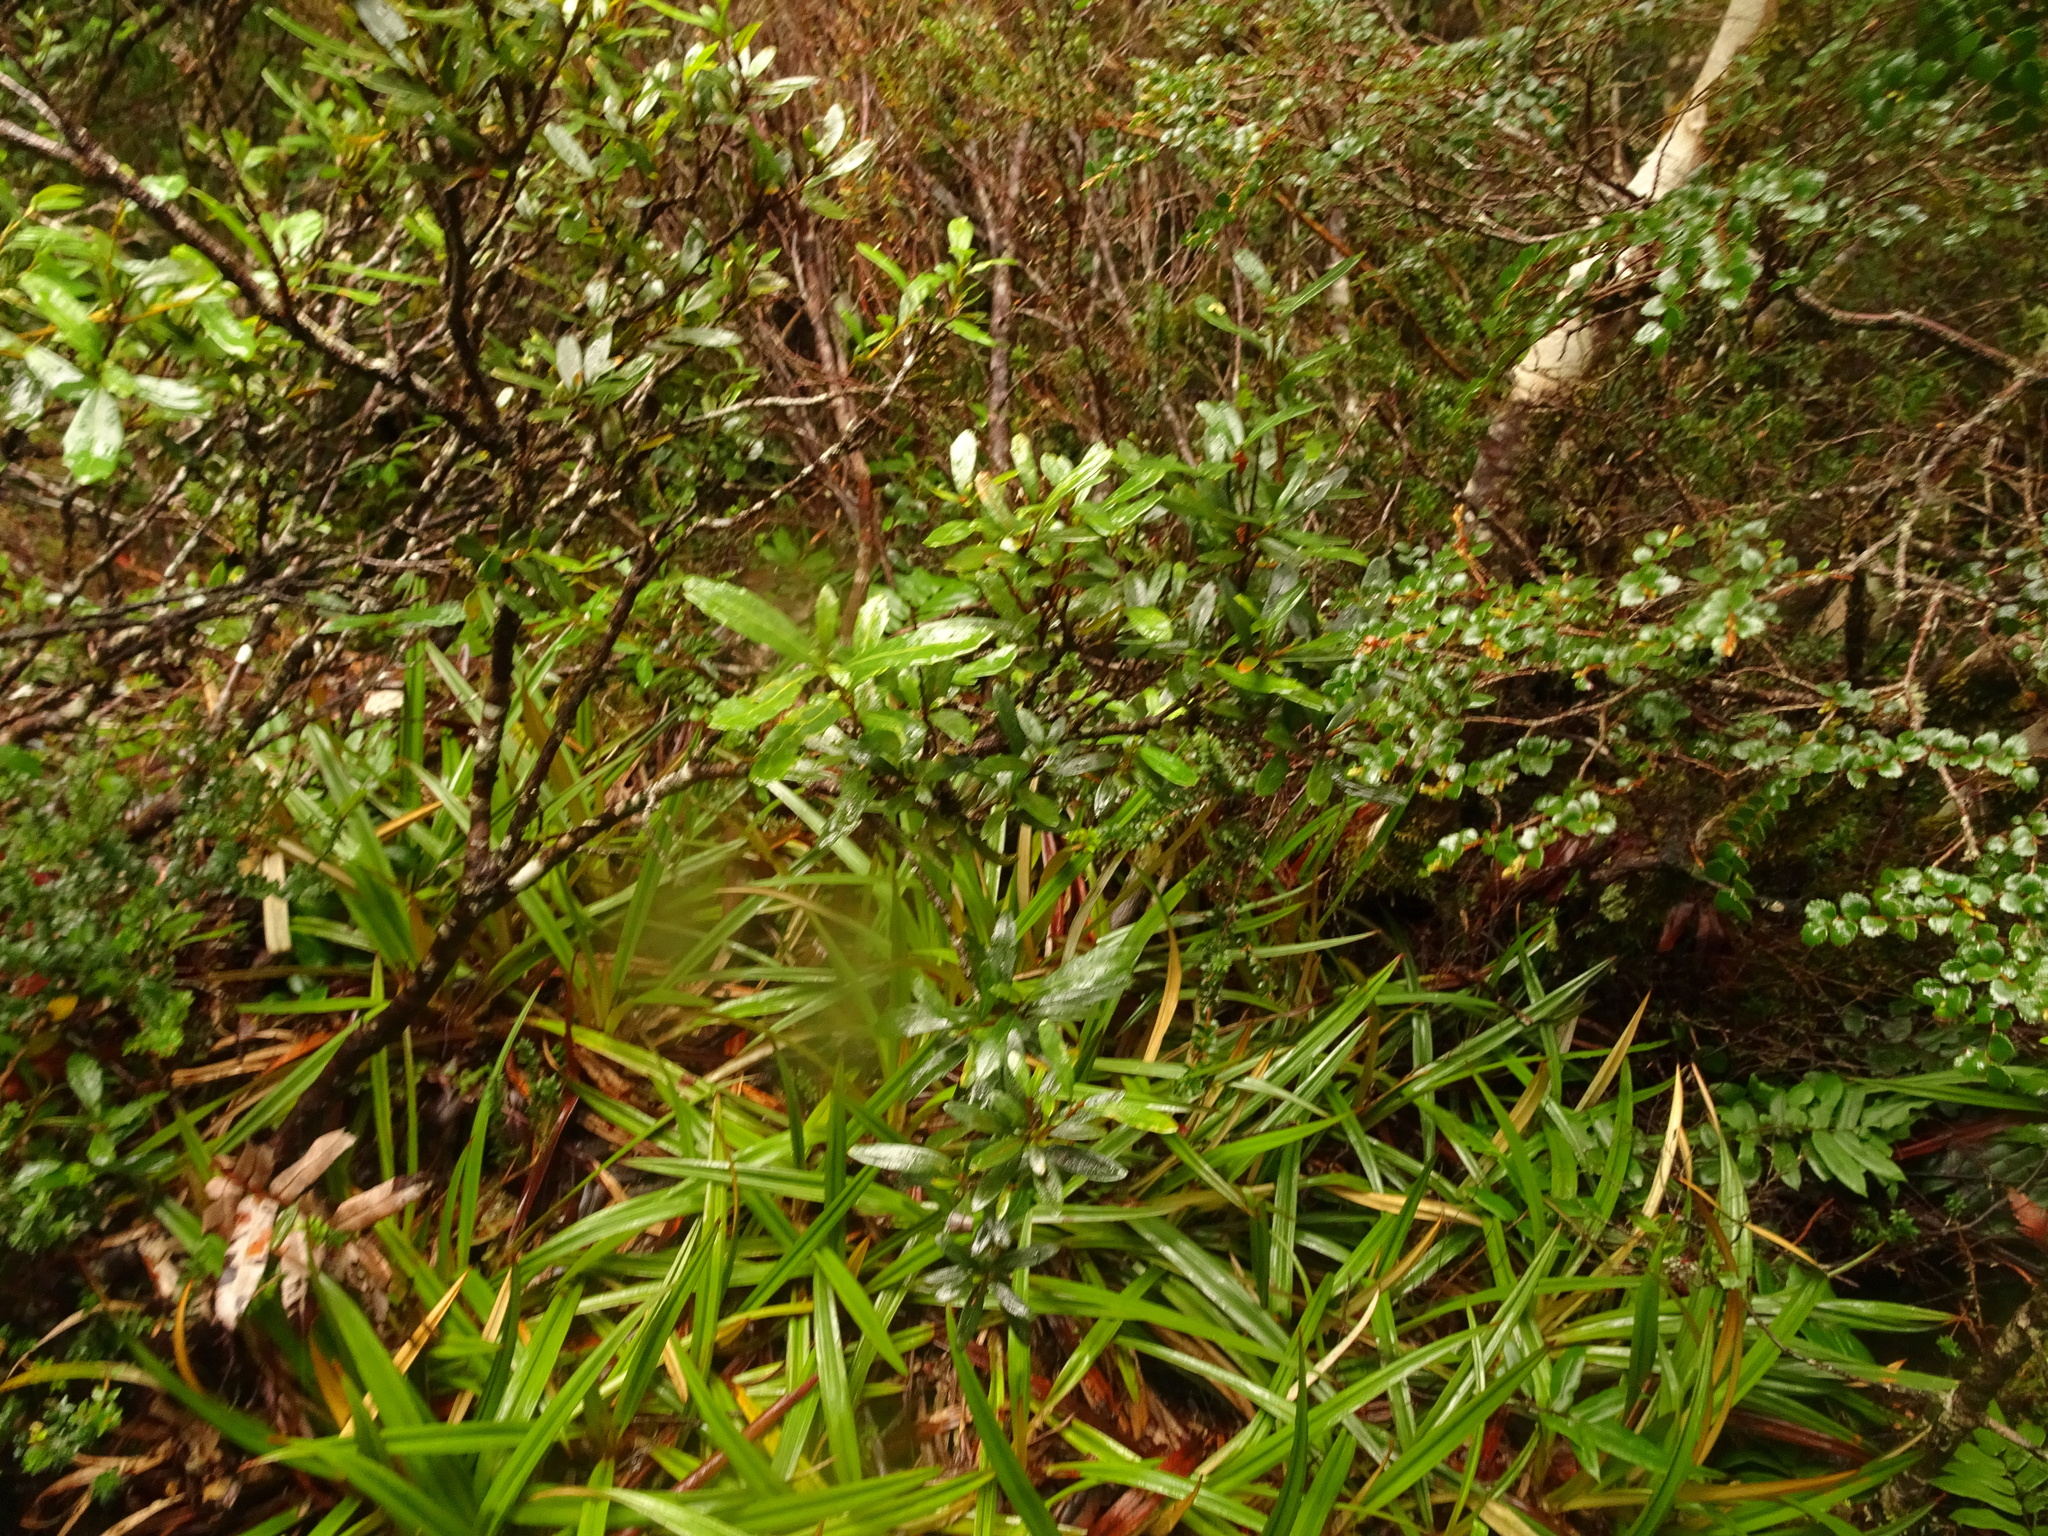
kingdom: Plantae
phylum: Tracheophyta
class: Magnoliopsida
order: Oxalidales
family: Cunoniaceae
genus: Eucryphia
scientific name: Eucryphia lucida
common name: Leatherwood
